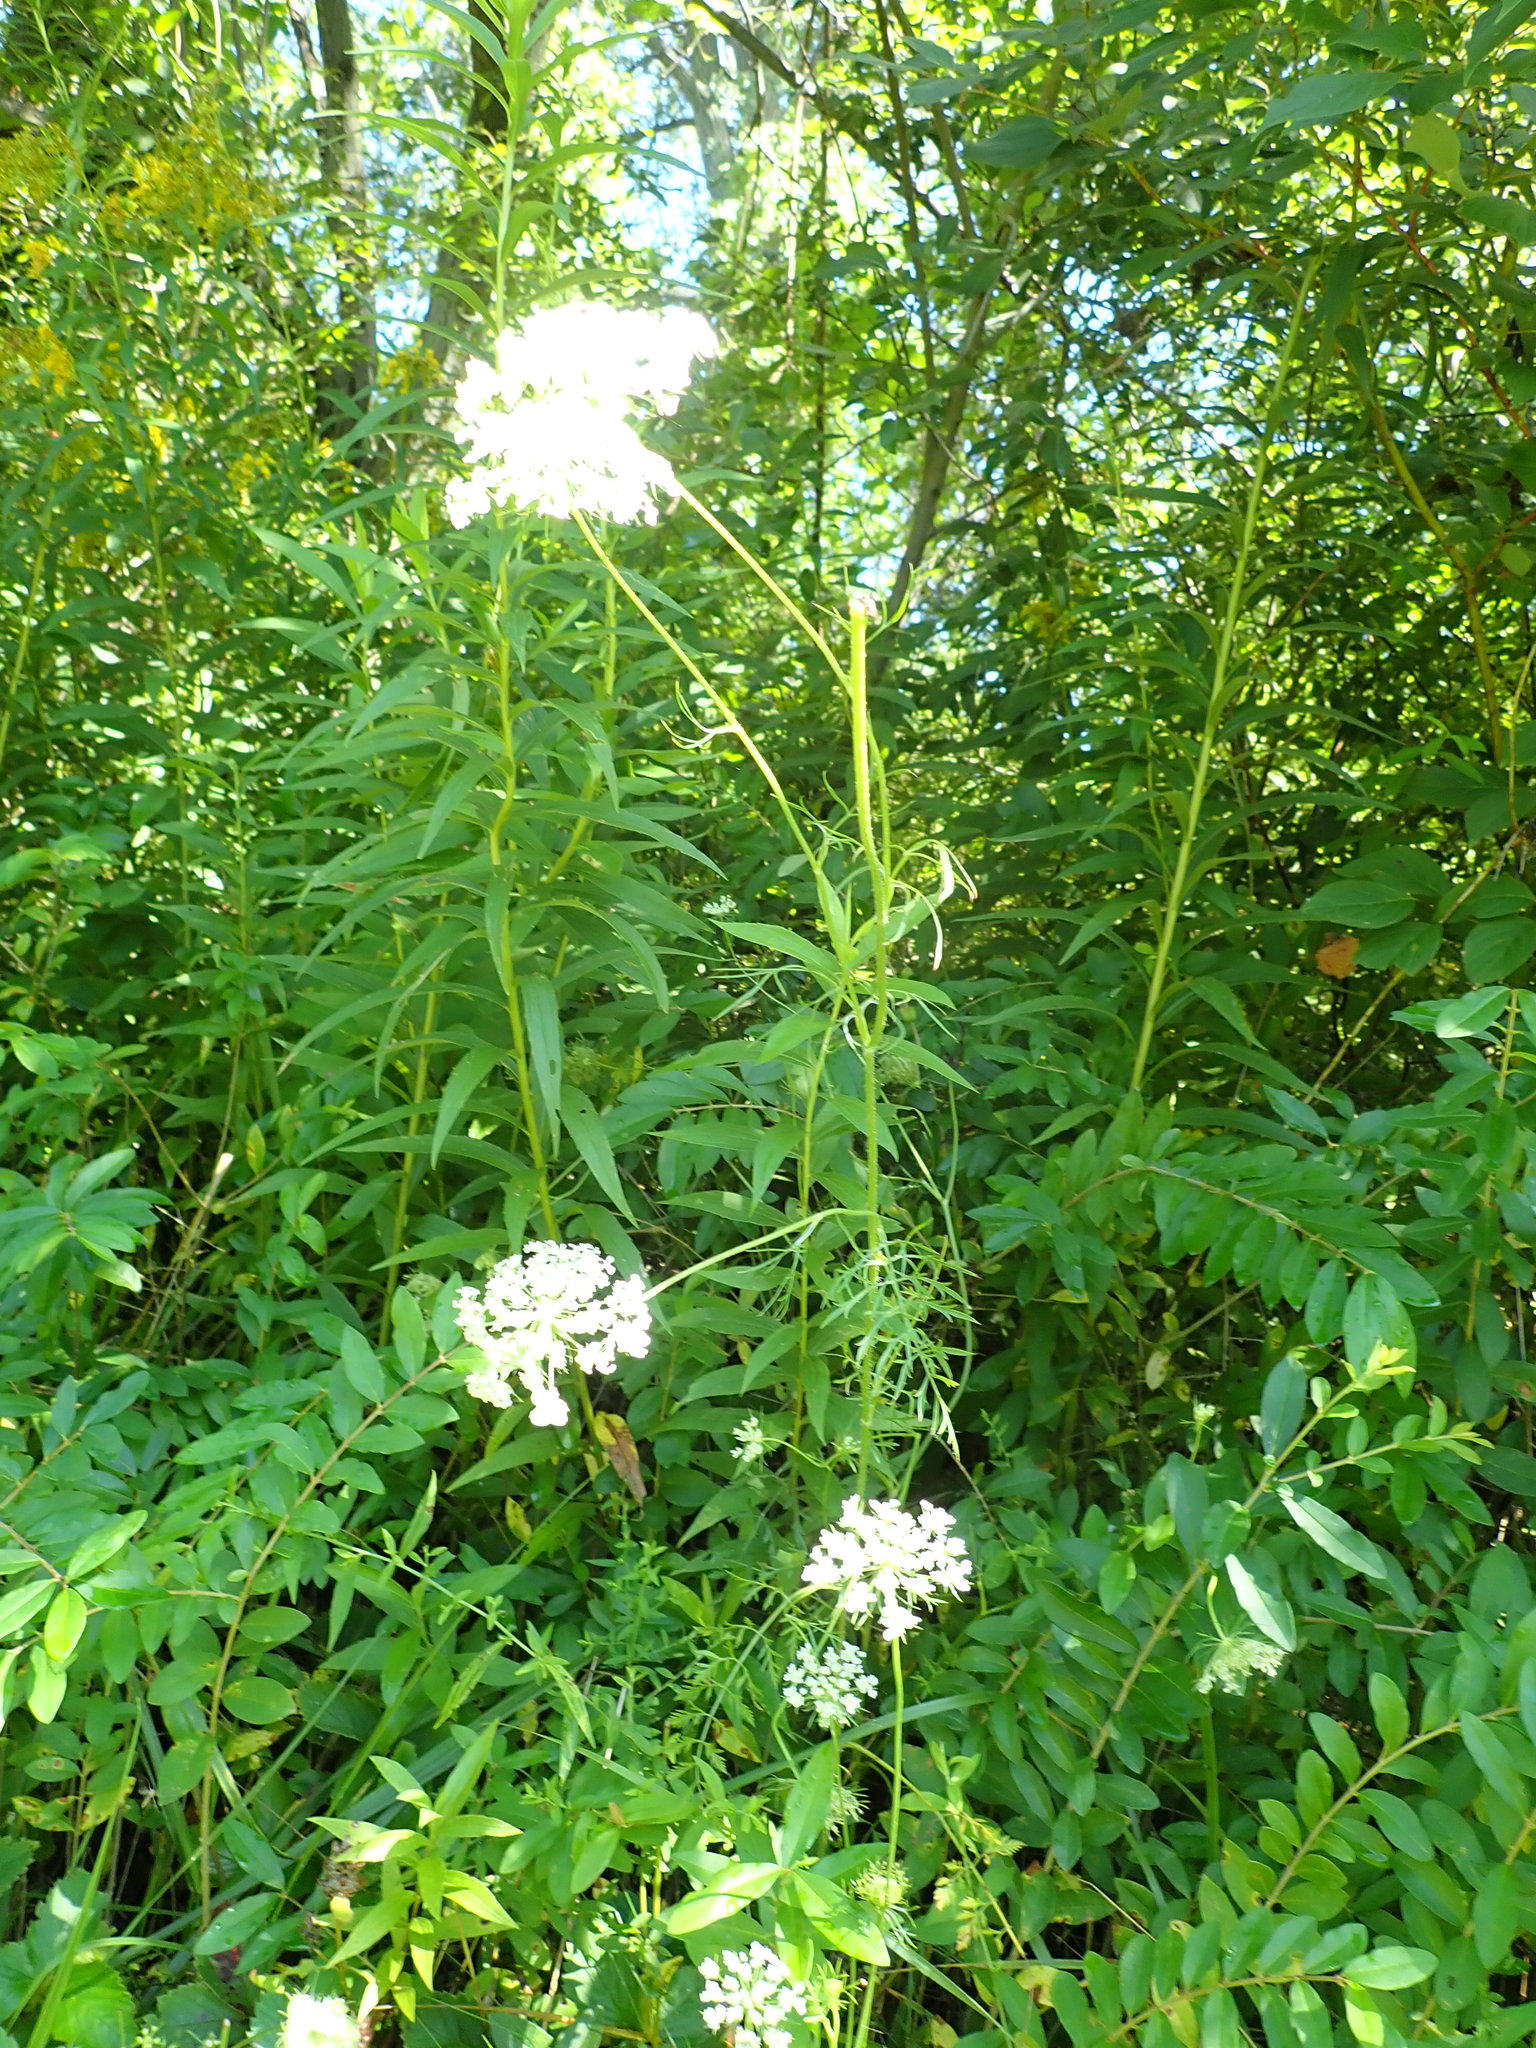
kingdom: Plantae
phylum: Tracheophyta
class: Magnoliopsida
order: Apiales
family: Apiaceae
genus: Daucus
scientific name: Daucus carota
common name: Wild carrot
